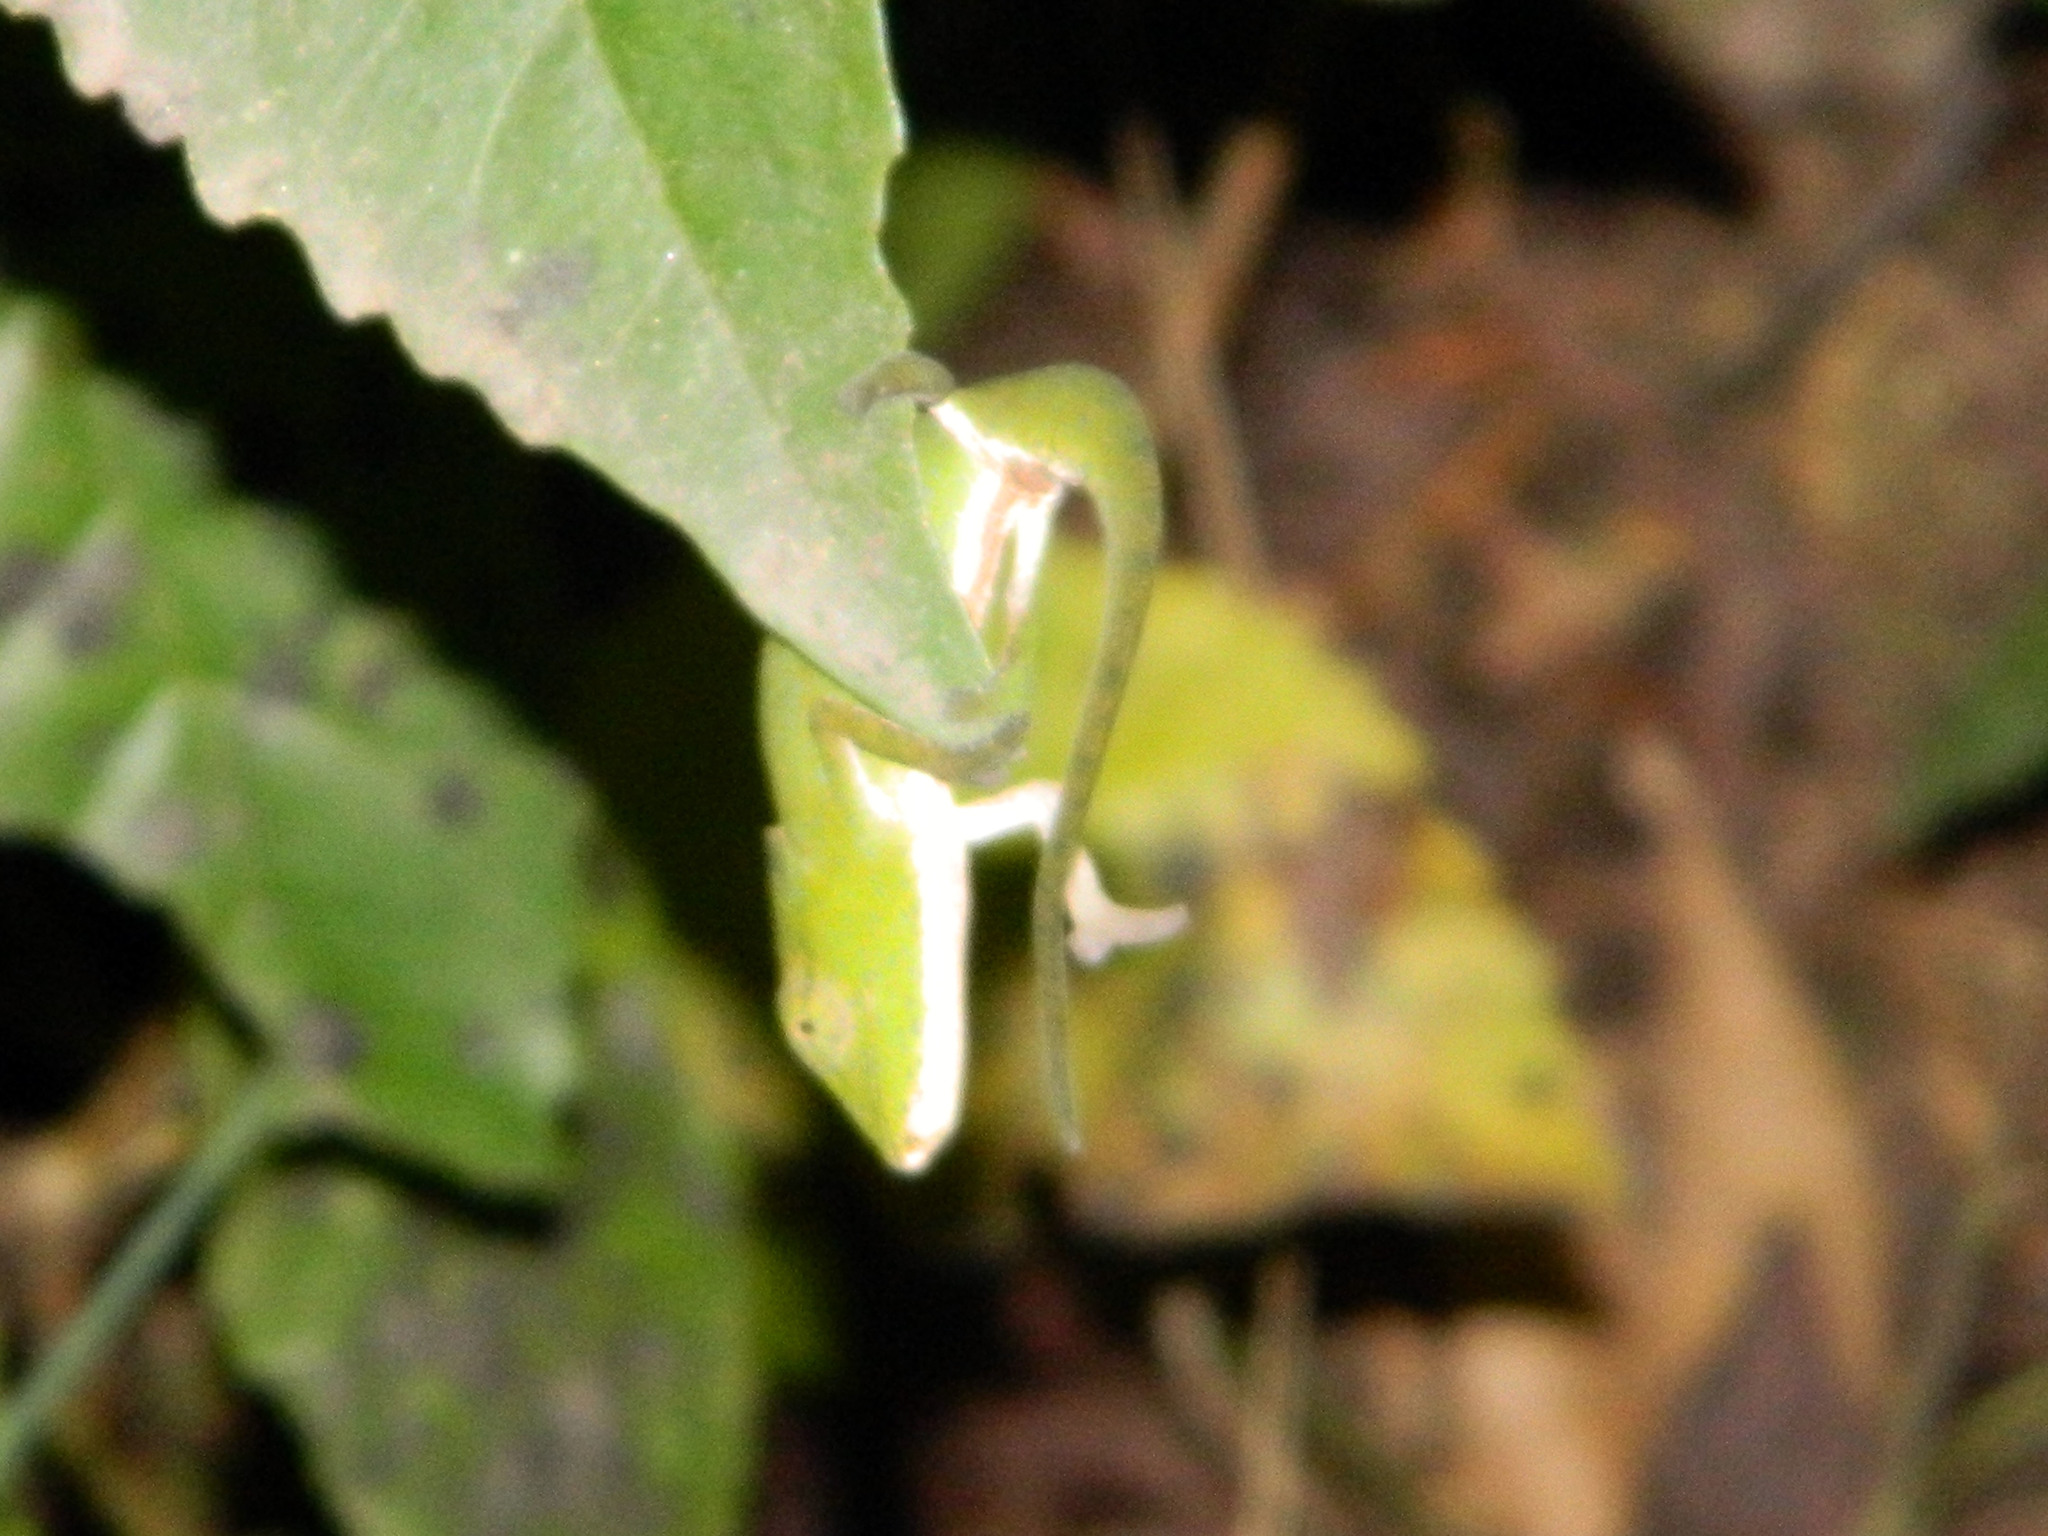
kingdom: Animalia
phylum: Chordata
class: Squamata
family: Chamaeleonidae
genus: Calumma
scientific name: Calumma glawi
